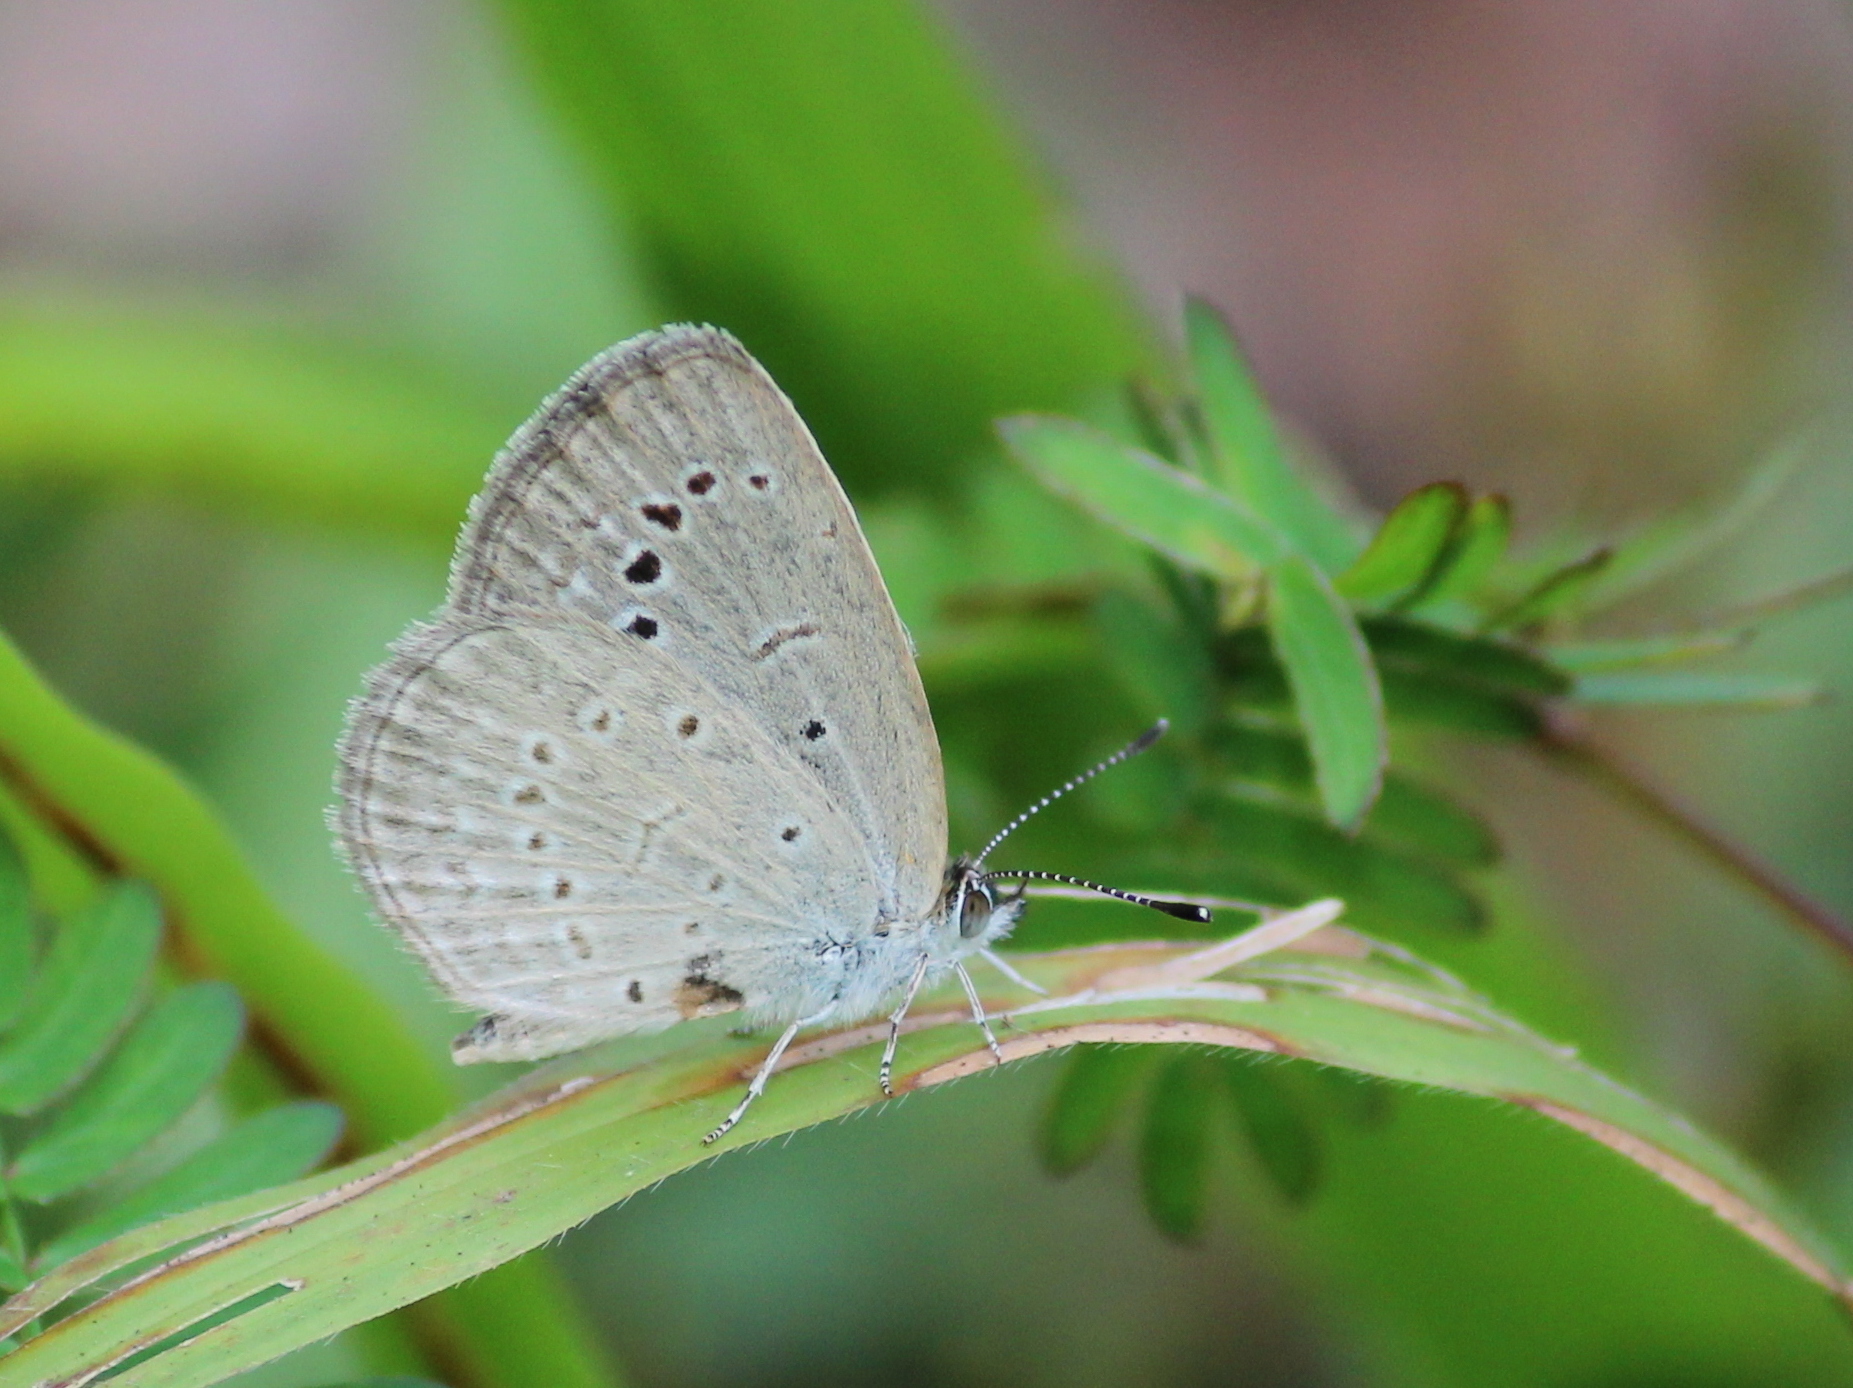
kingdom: Animalia
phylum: Arthropoda
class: Insecta
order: Lepidoptera
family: Lycaenidae
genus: Pseudozizeeria
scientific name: Pseudozizeeria maha
